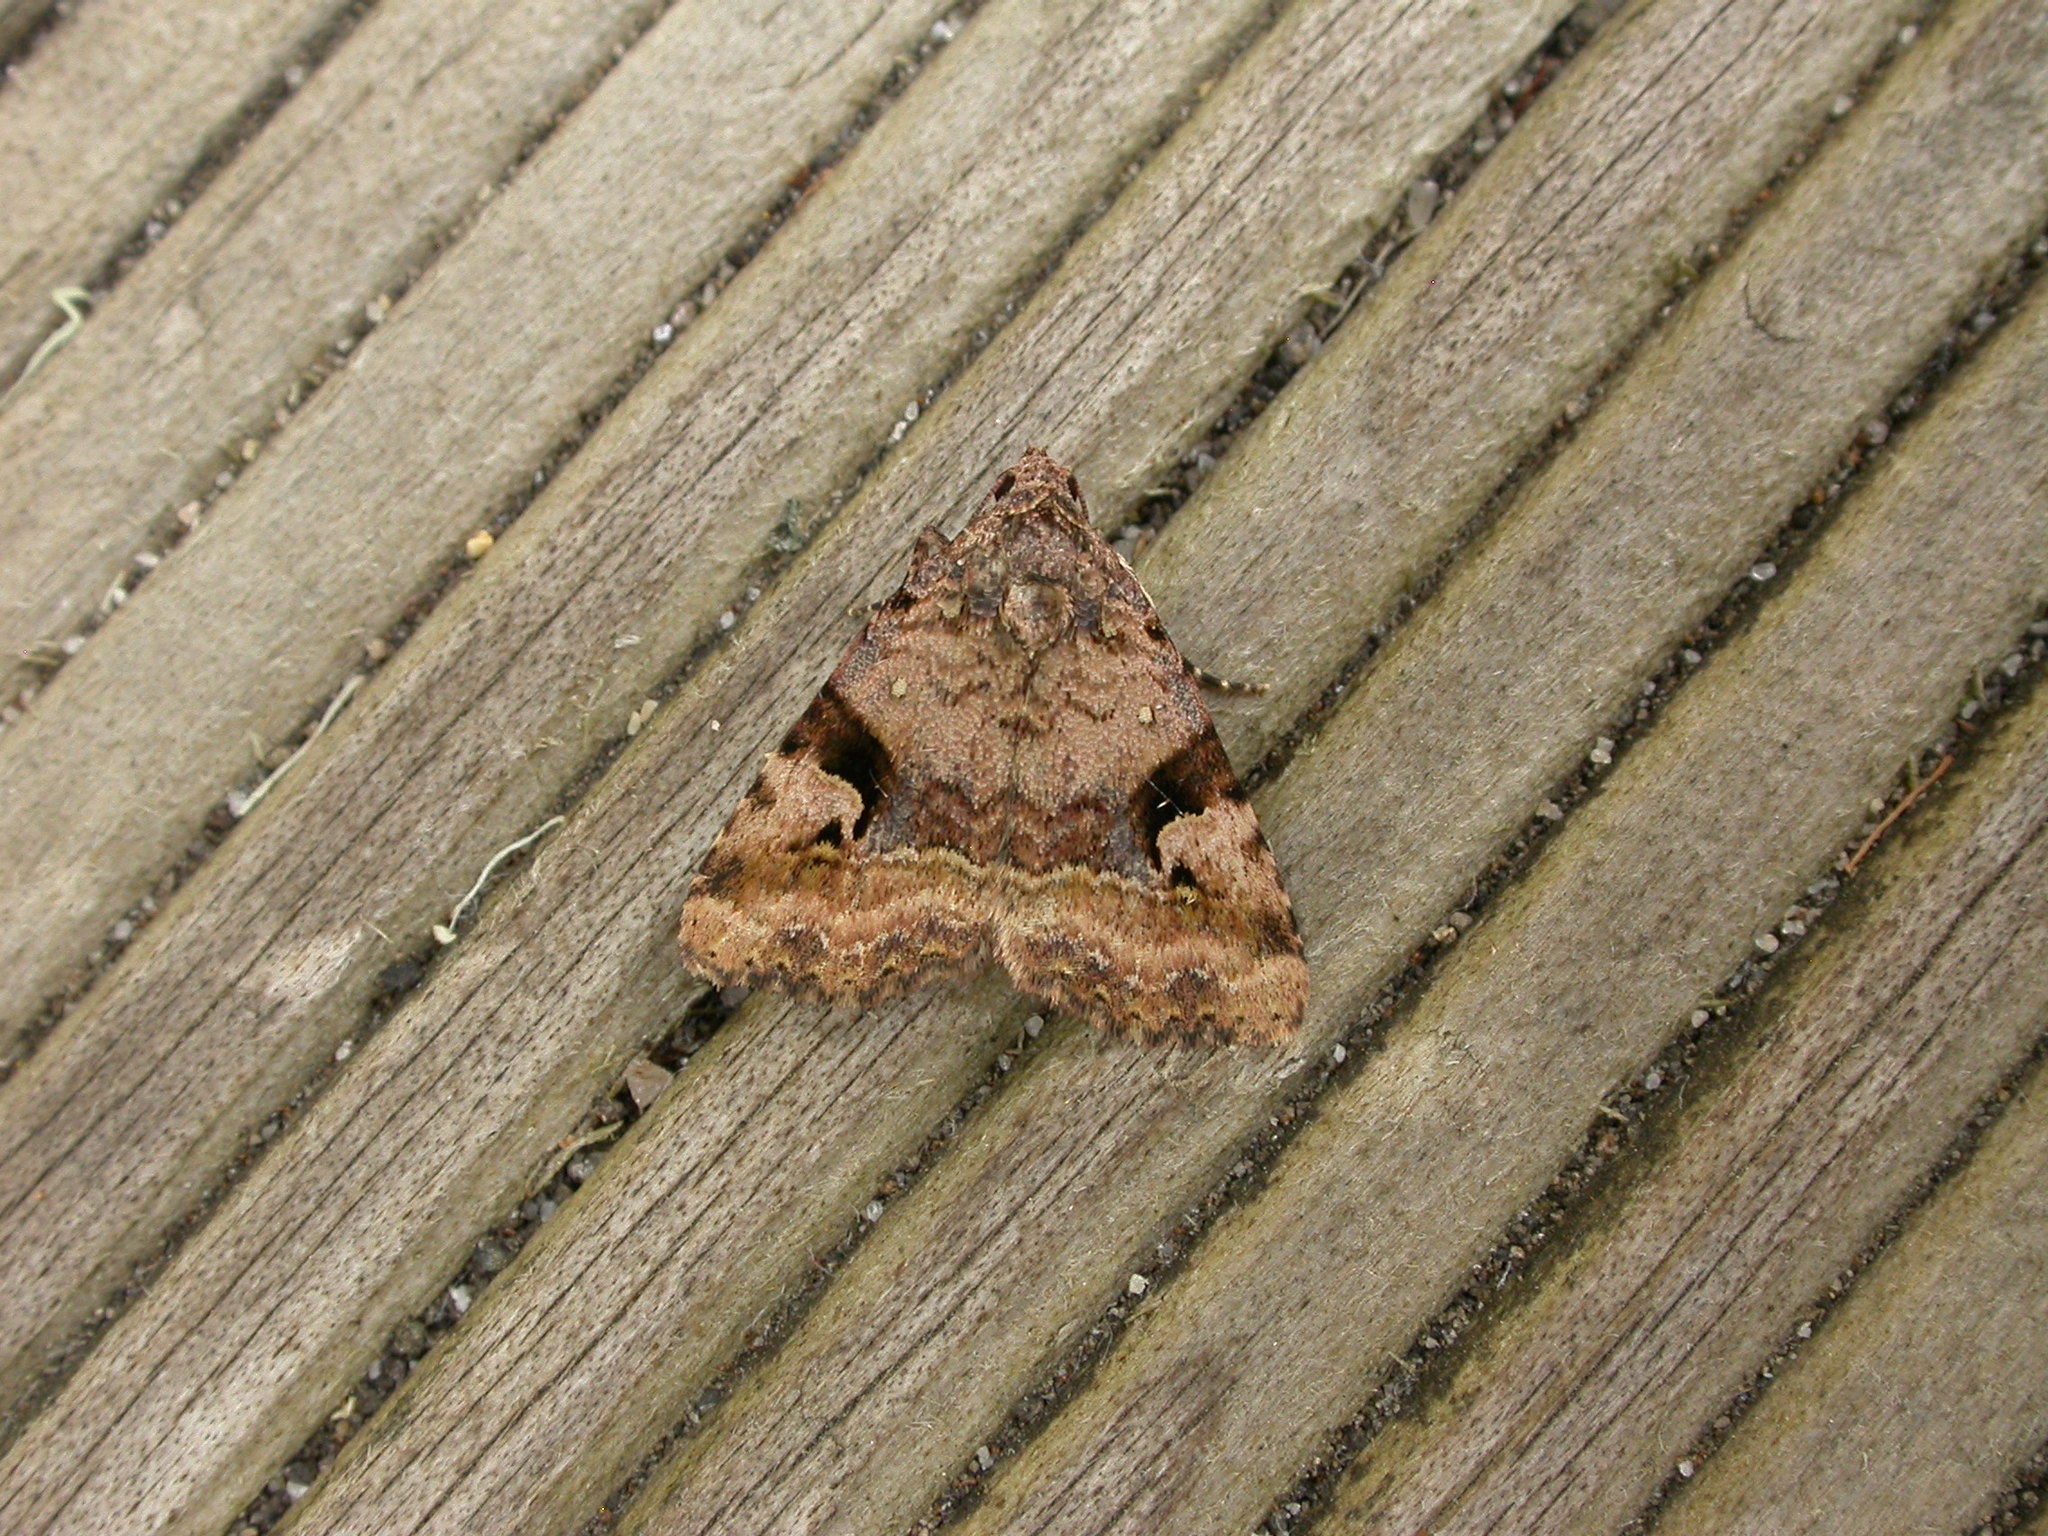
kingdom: Animalia
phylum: Arthropoda
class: Insecta
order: Lepidoptera
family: Noctuidae
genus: Pyripnoa
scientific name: Pyripnoa auricularia
